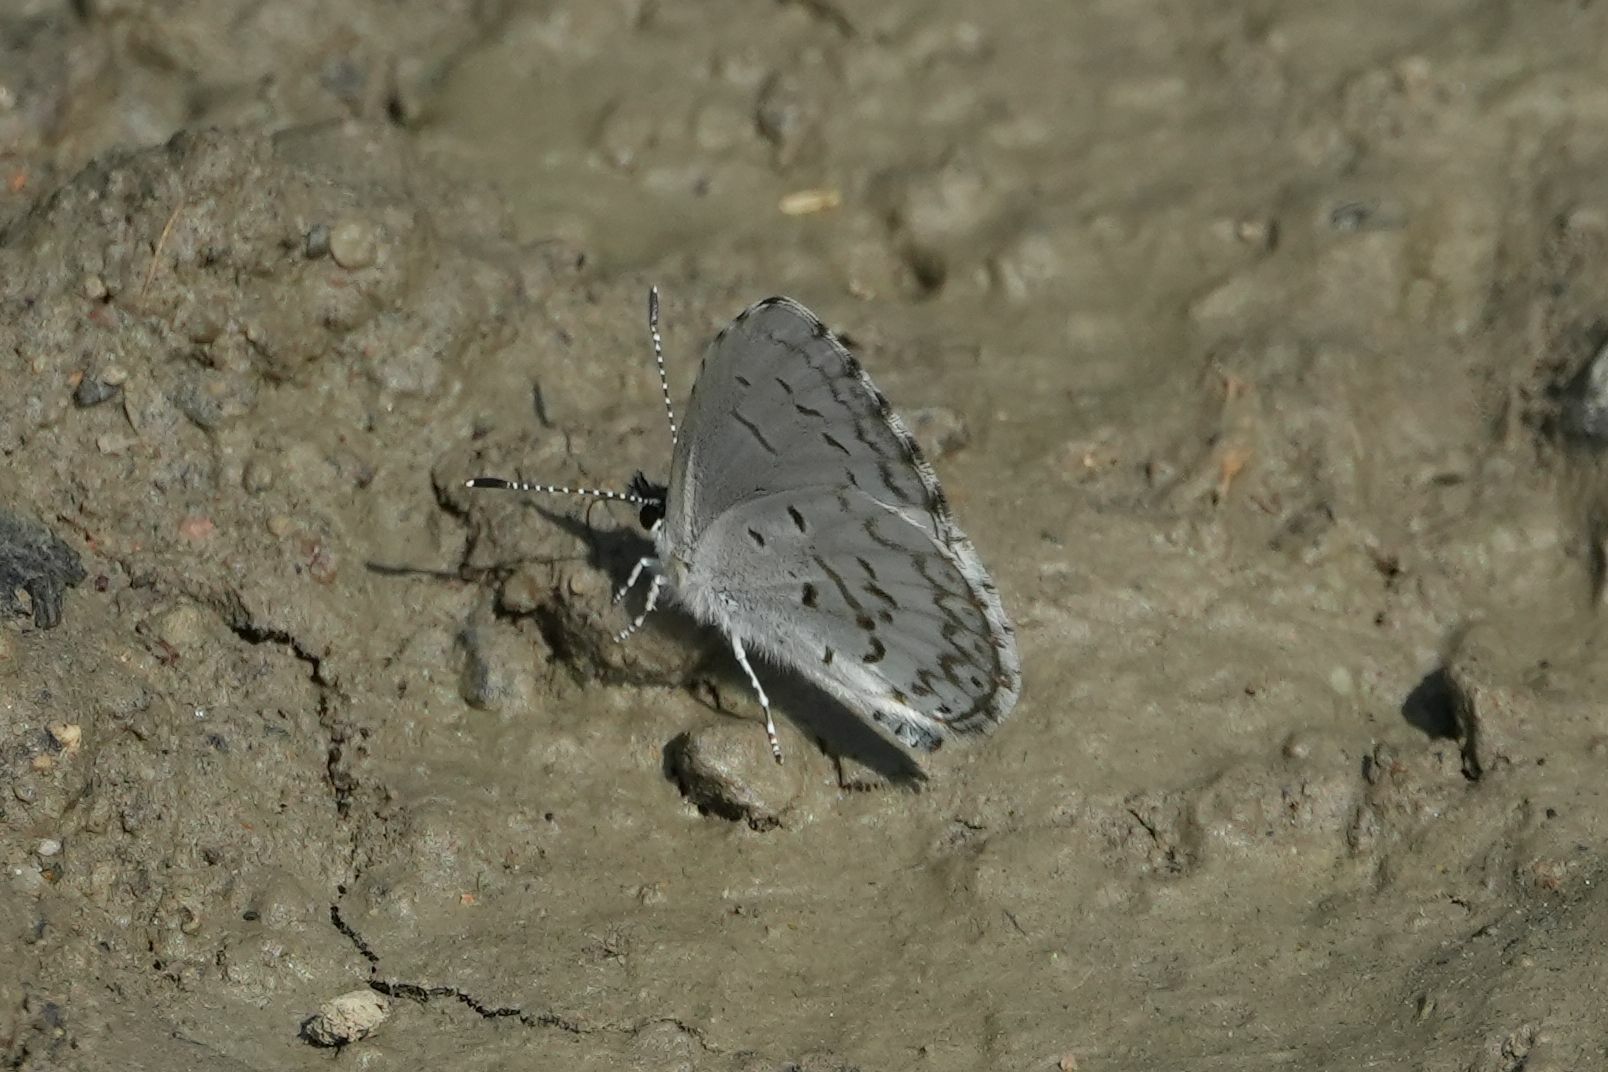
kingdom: Animalia
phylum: Arthropoda
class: Insecta
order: Lepidoptera
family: Lycaenidae
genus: Celastrina
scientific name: Celastrina lucia
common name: Lucia azure
